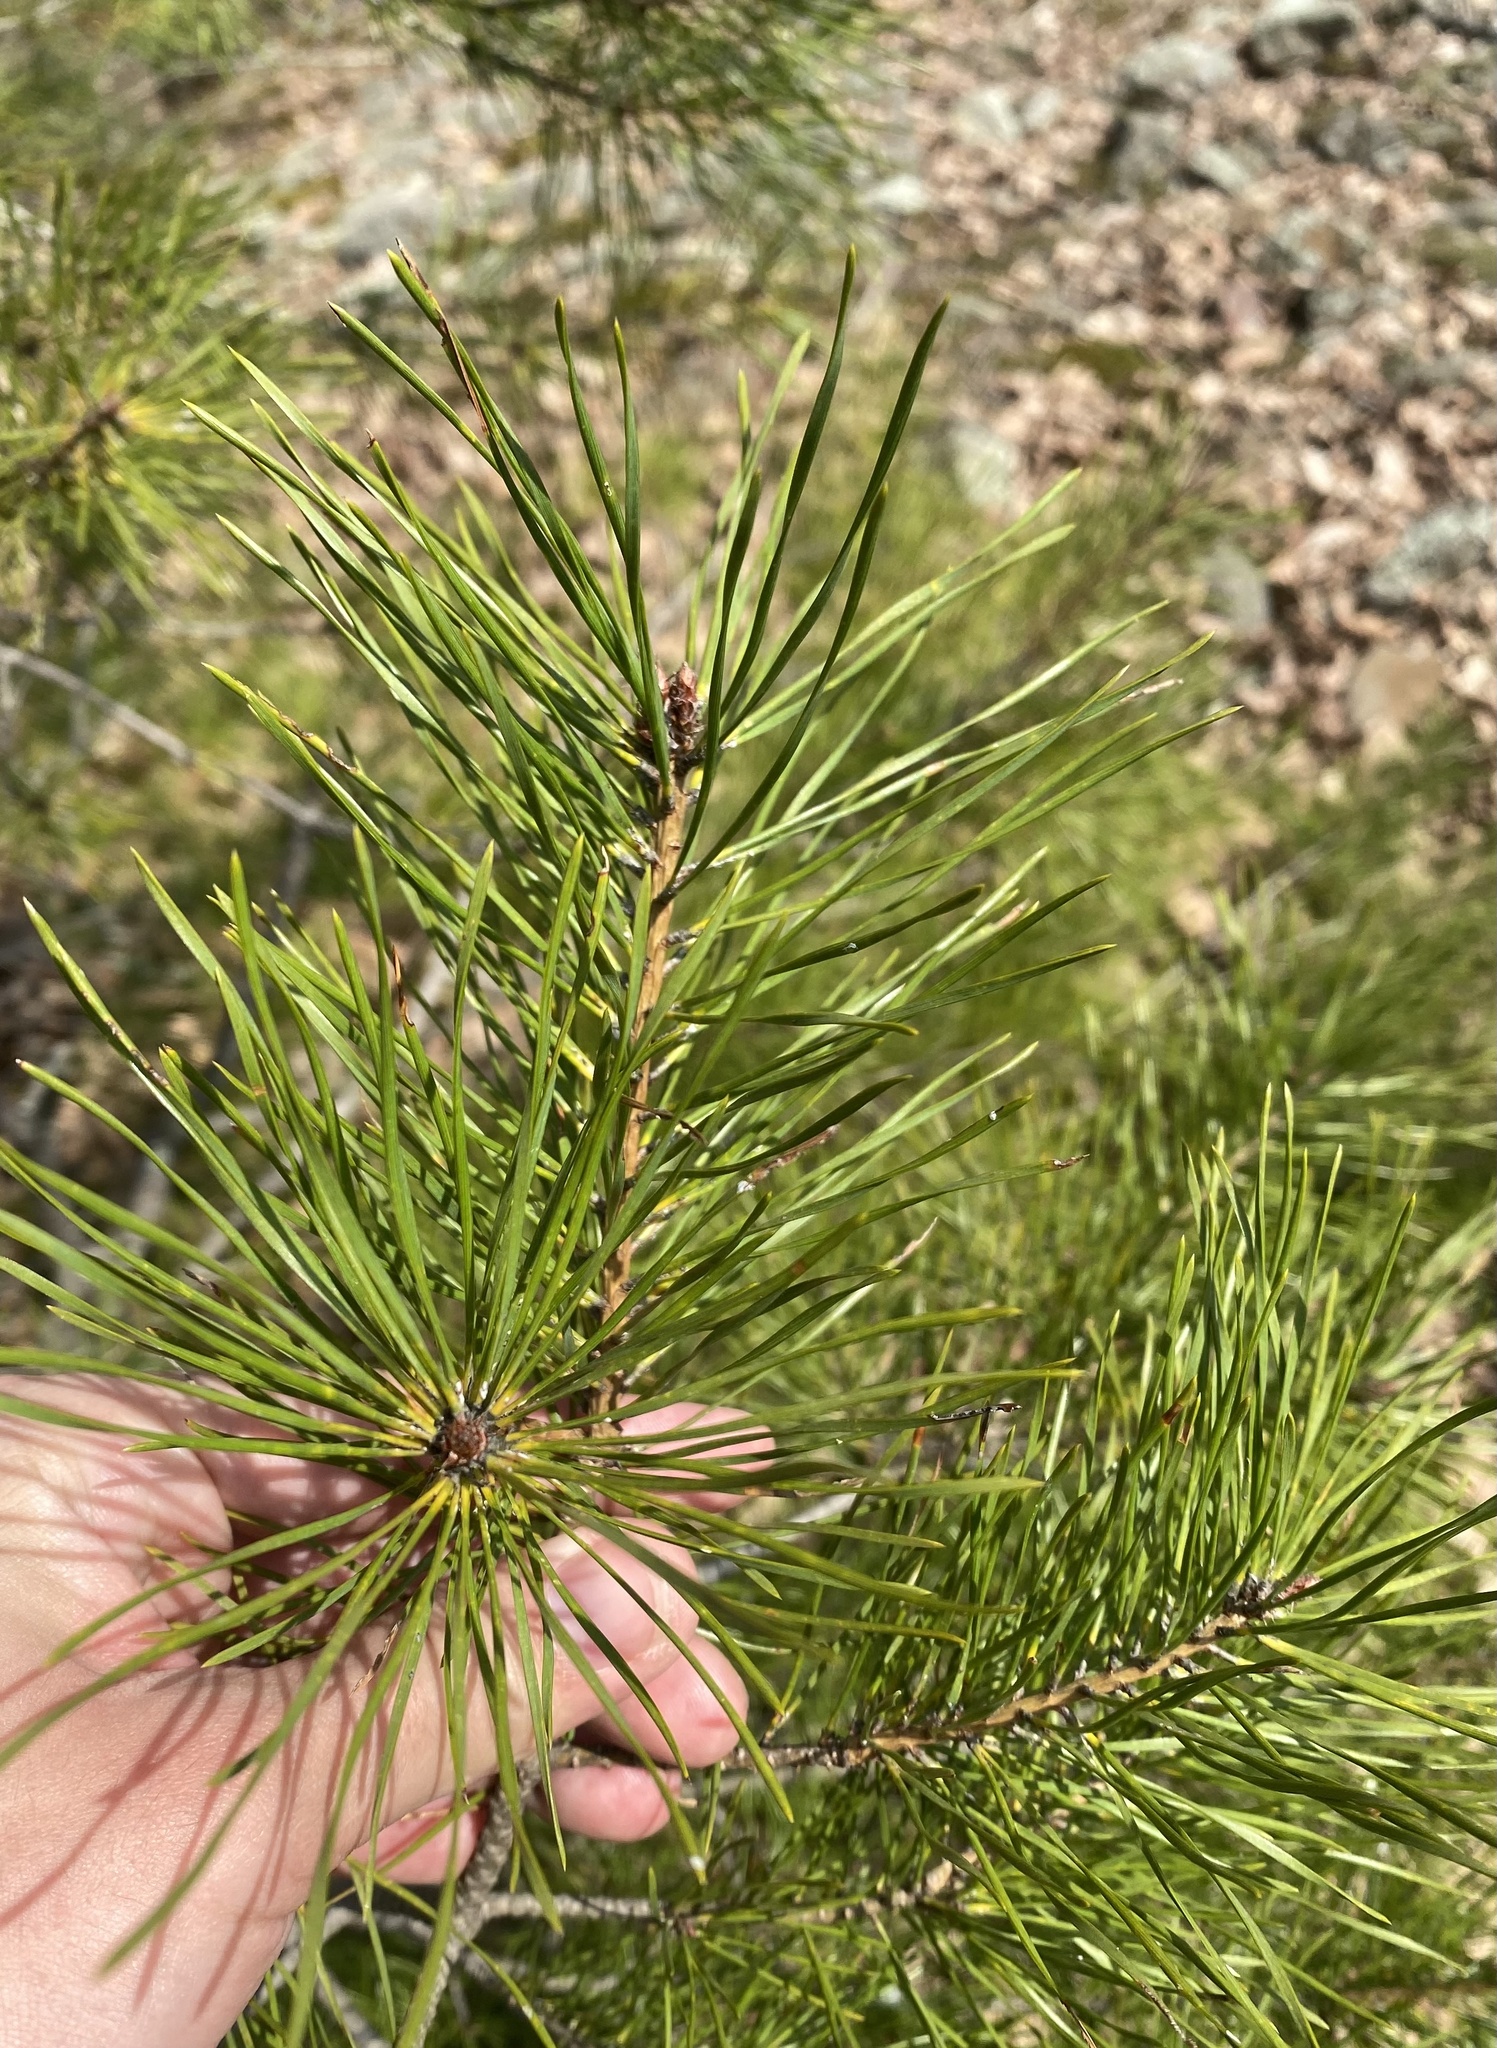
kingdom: Plantae
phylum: Tracheophyta
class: Pinopsida
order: Pinales
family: Pinaceae
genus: Pinus
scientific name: Pinus sylvestris
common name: Scots pine
